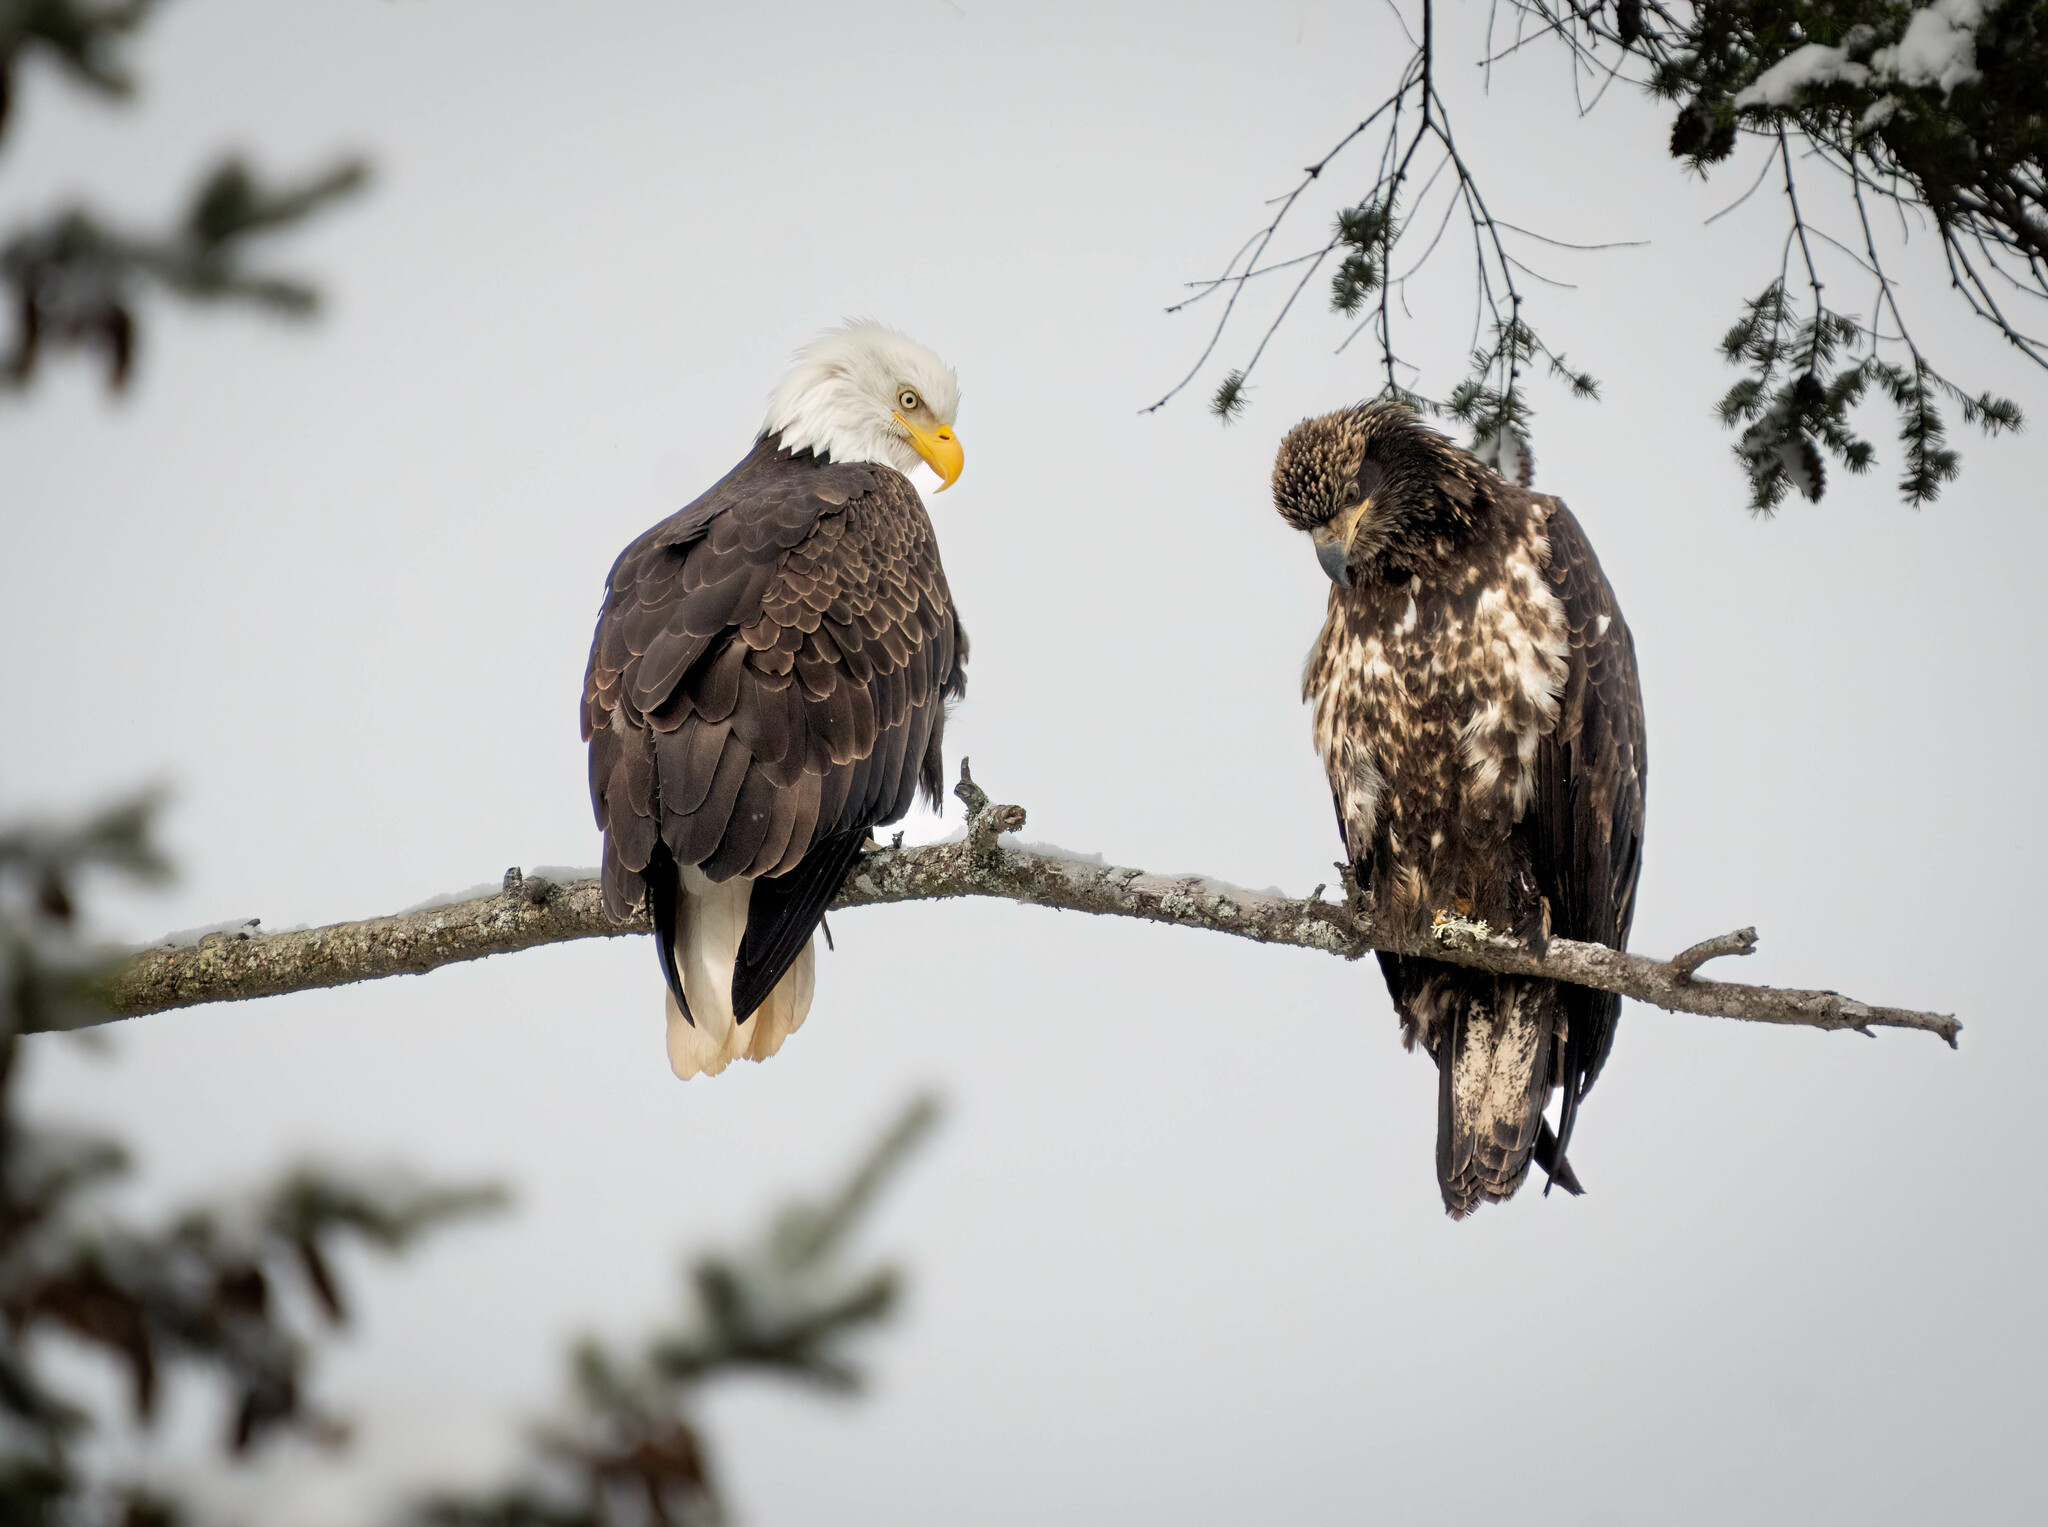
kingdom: Animalia
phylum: Chordata
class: Aves
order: Accipitriformes
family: Accipitridae
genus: Haliaeetus
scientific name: Haliaeetus leucocephalus
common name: Bald eagle
